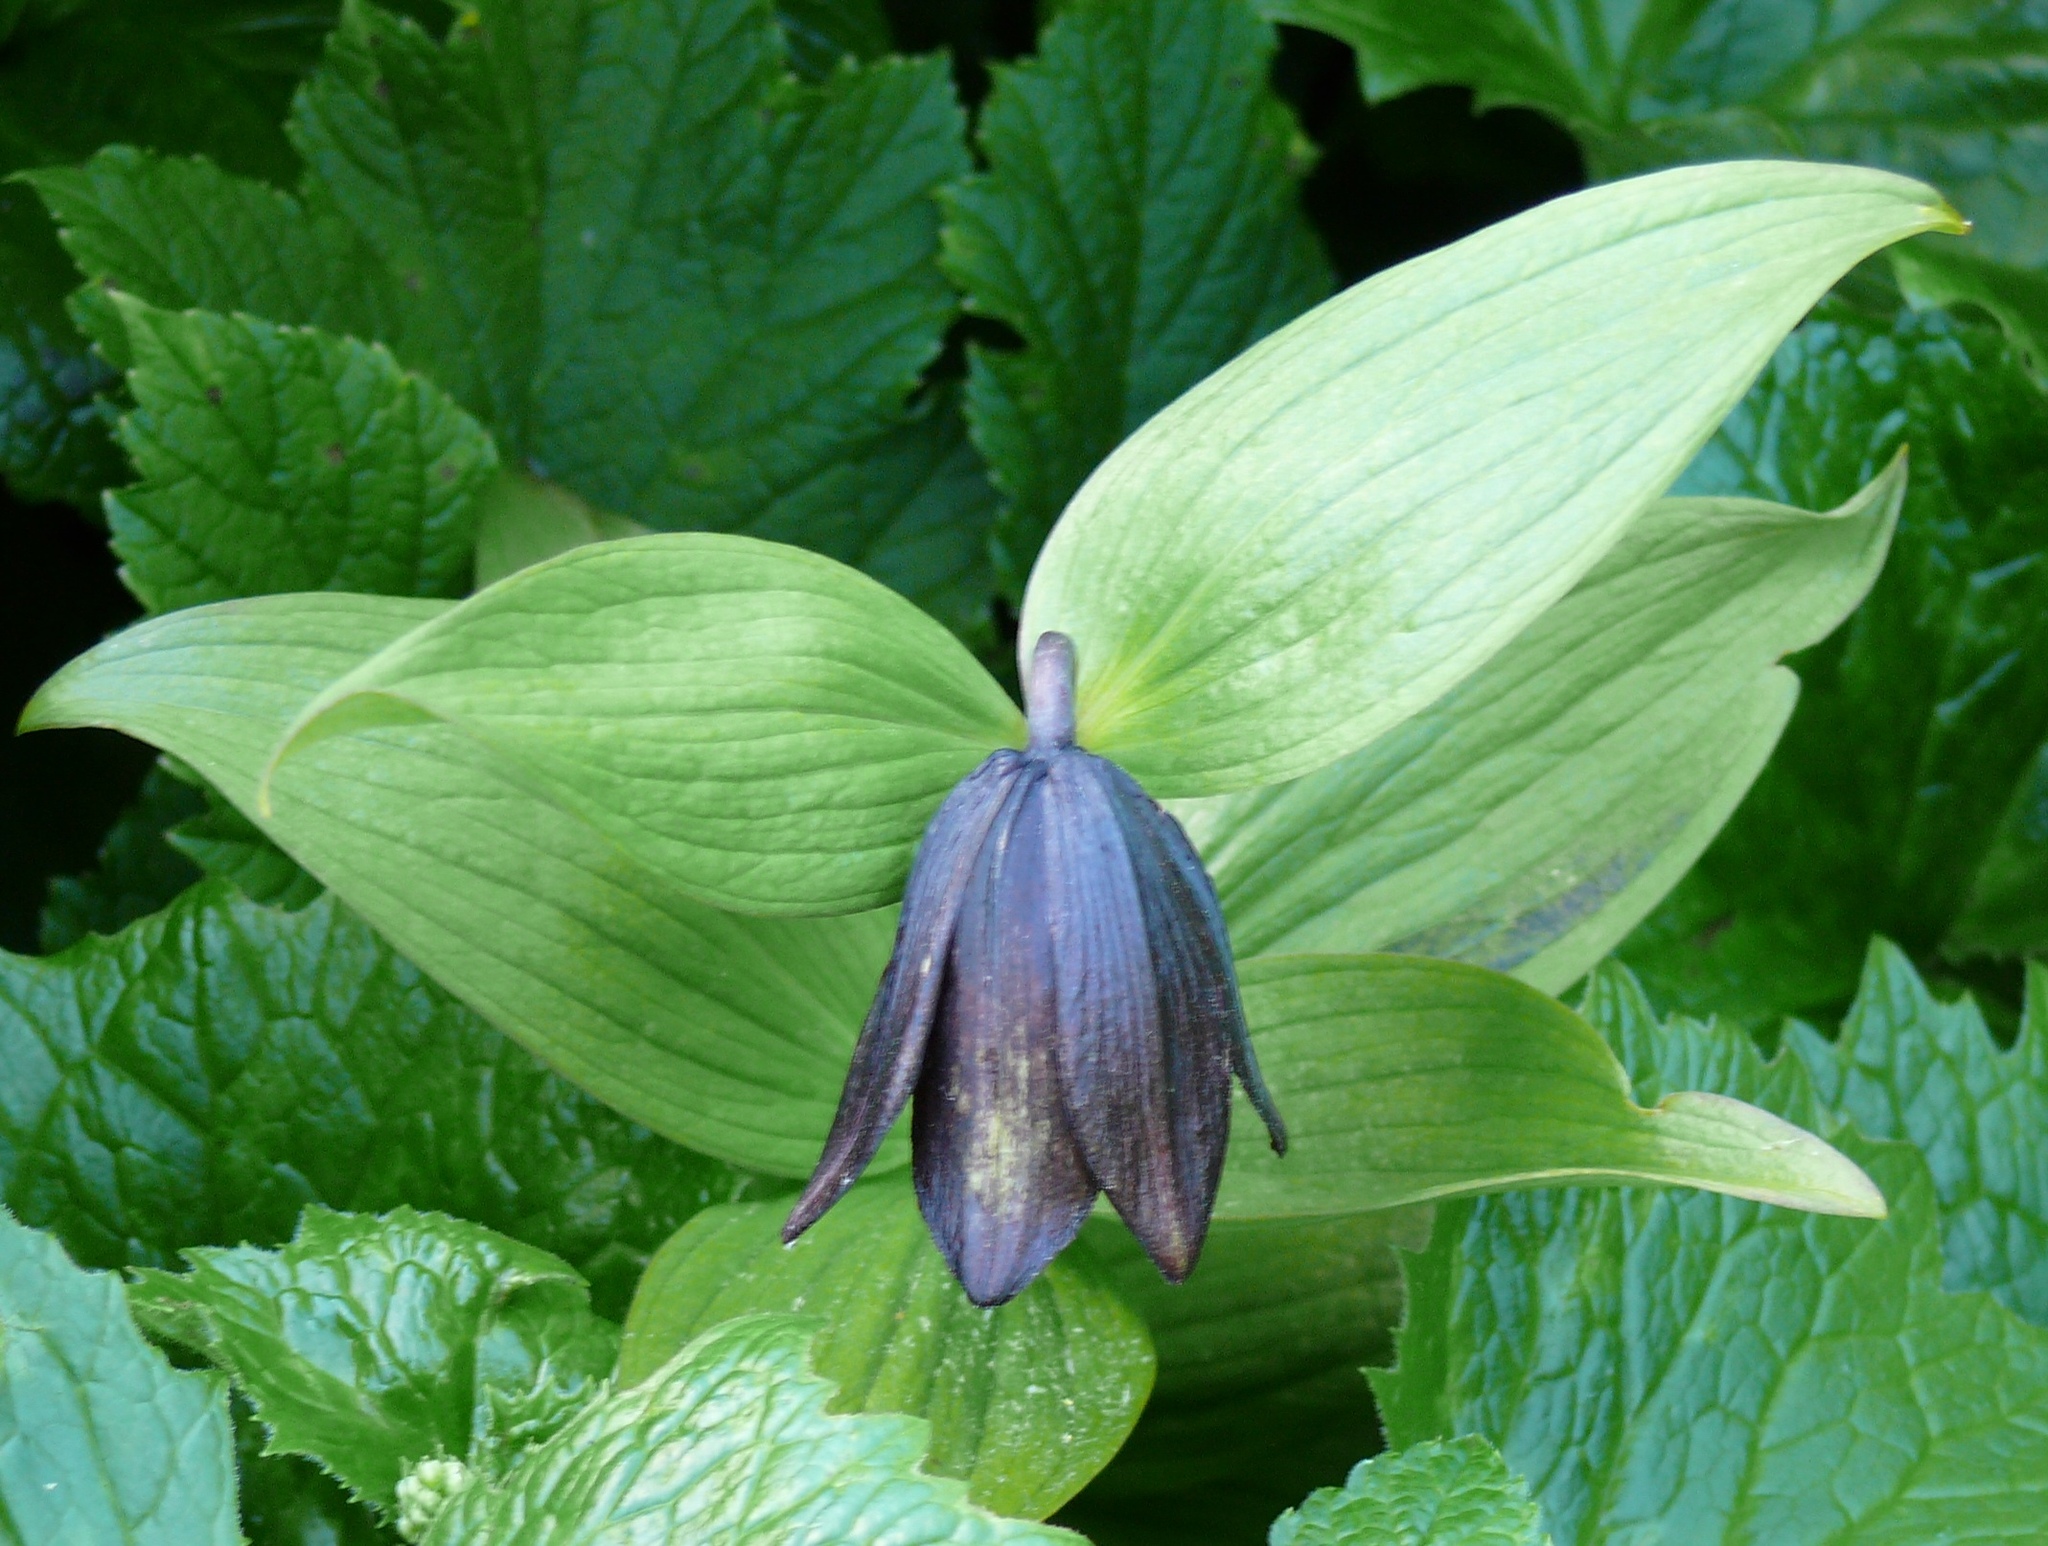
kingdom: Plantae
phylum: Tracheophyta
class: Liliopsida
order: Liliales
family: Liliaceae
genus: Fritillaria
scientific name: Fritillaria camschatcensis
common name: Kamchatka fritillary
